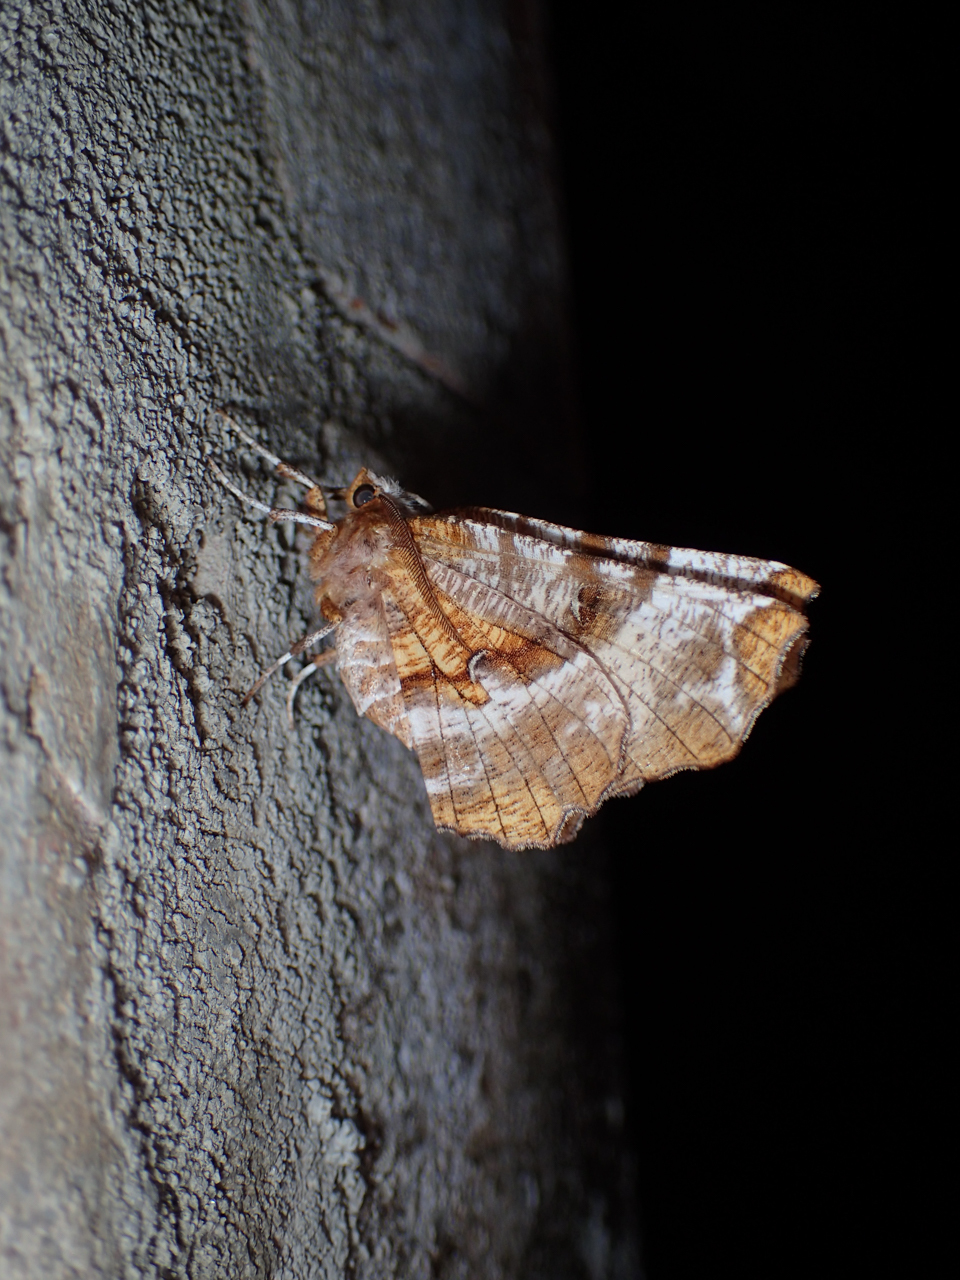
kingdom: Animalia
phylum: Arthropoda
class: Insecta
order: Lepidoptera
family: Geometridae
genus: Selenia
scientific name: Selenia kentaria
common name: Kent's geometer
